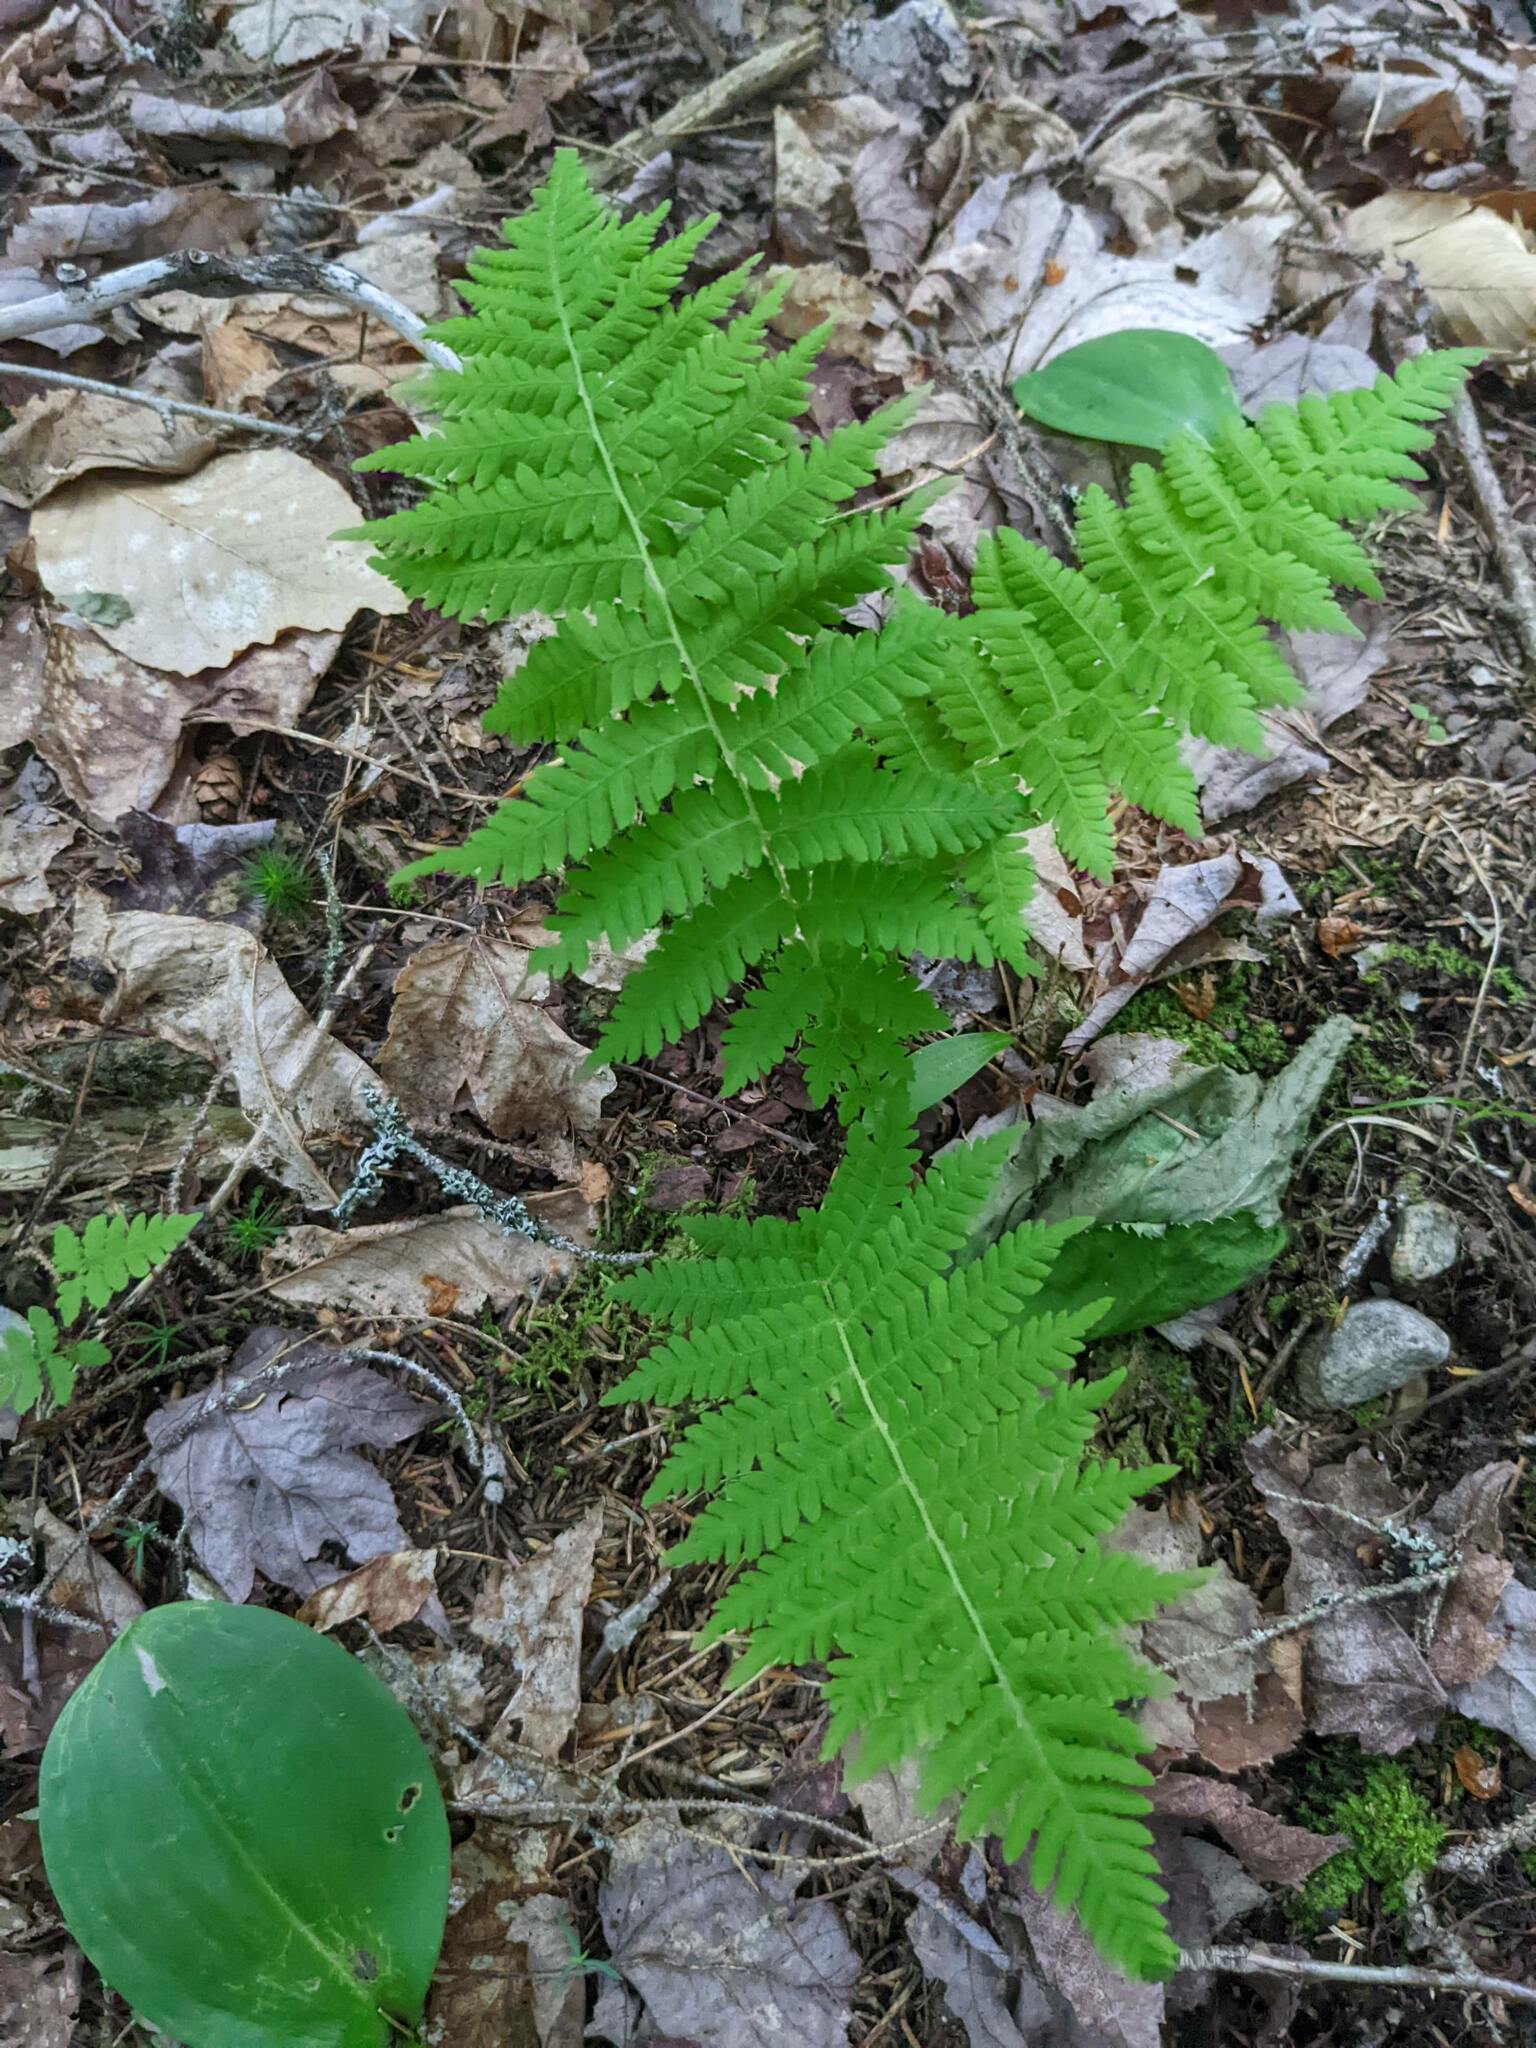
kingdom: Plantae
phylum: Tracheophyta
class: Polypodiopsida
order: Polypodiales
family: Thelypteridaceae
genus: Amauropelta
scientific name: Amauropelta noveboracensis
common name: New york fern
